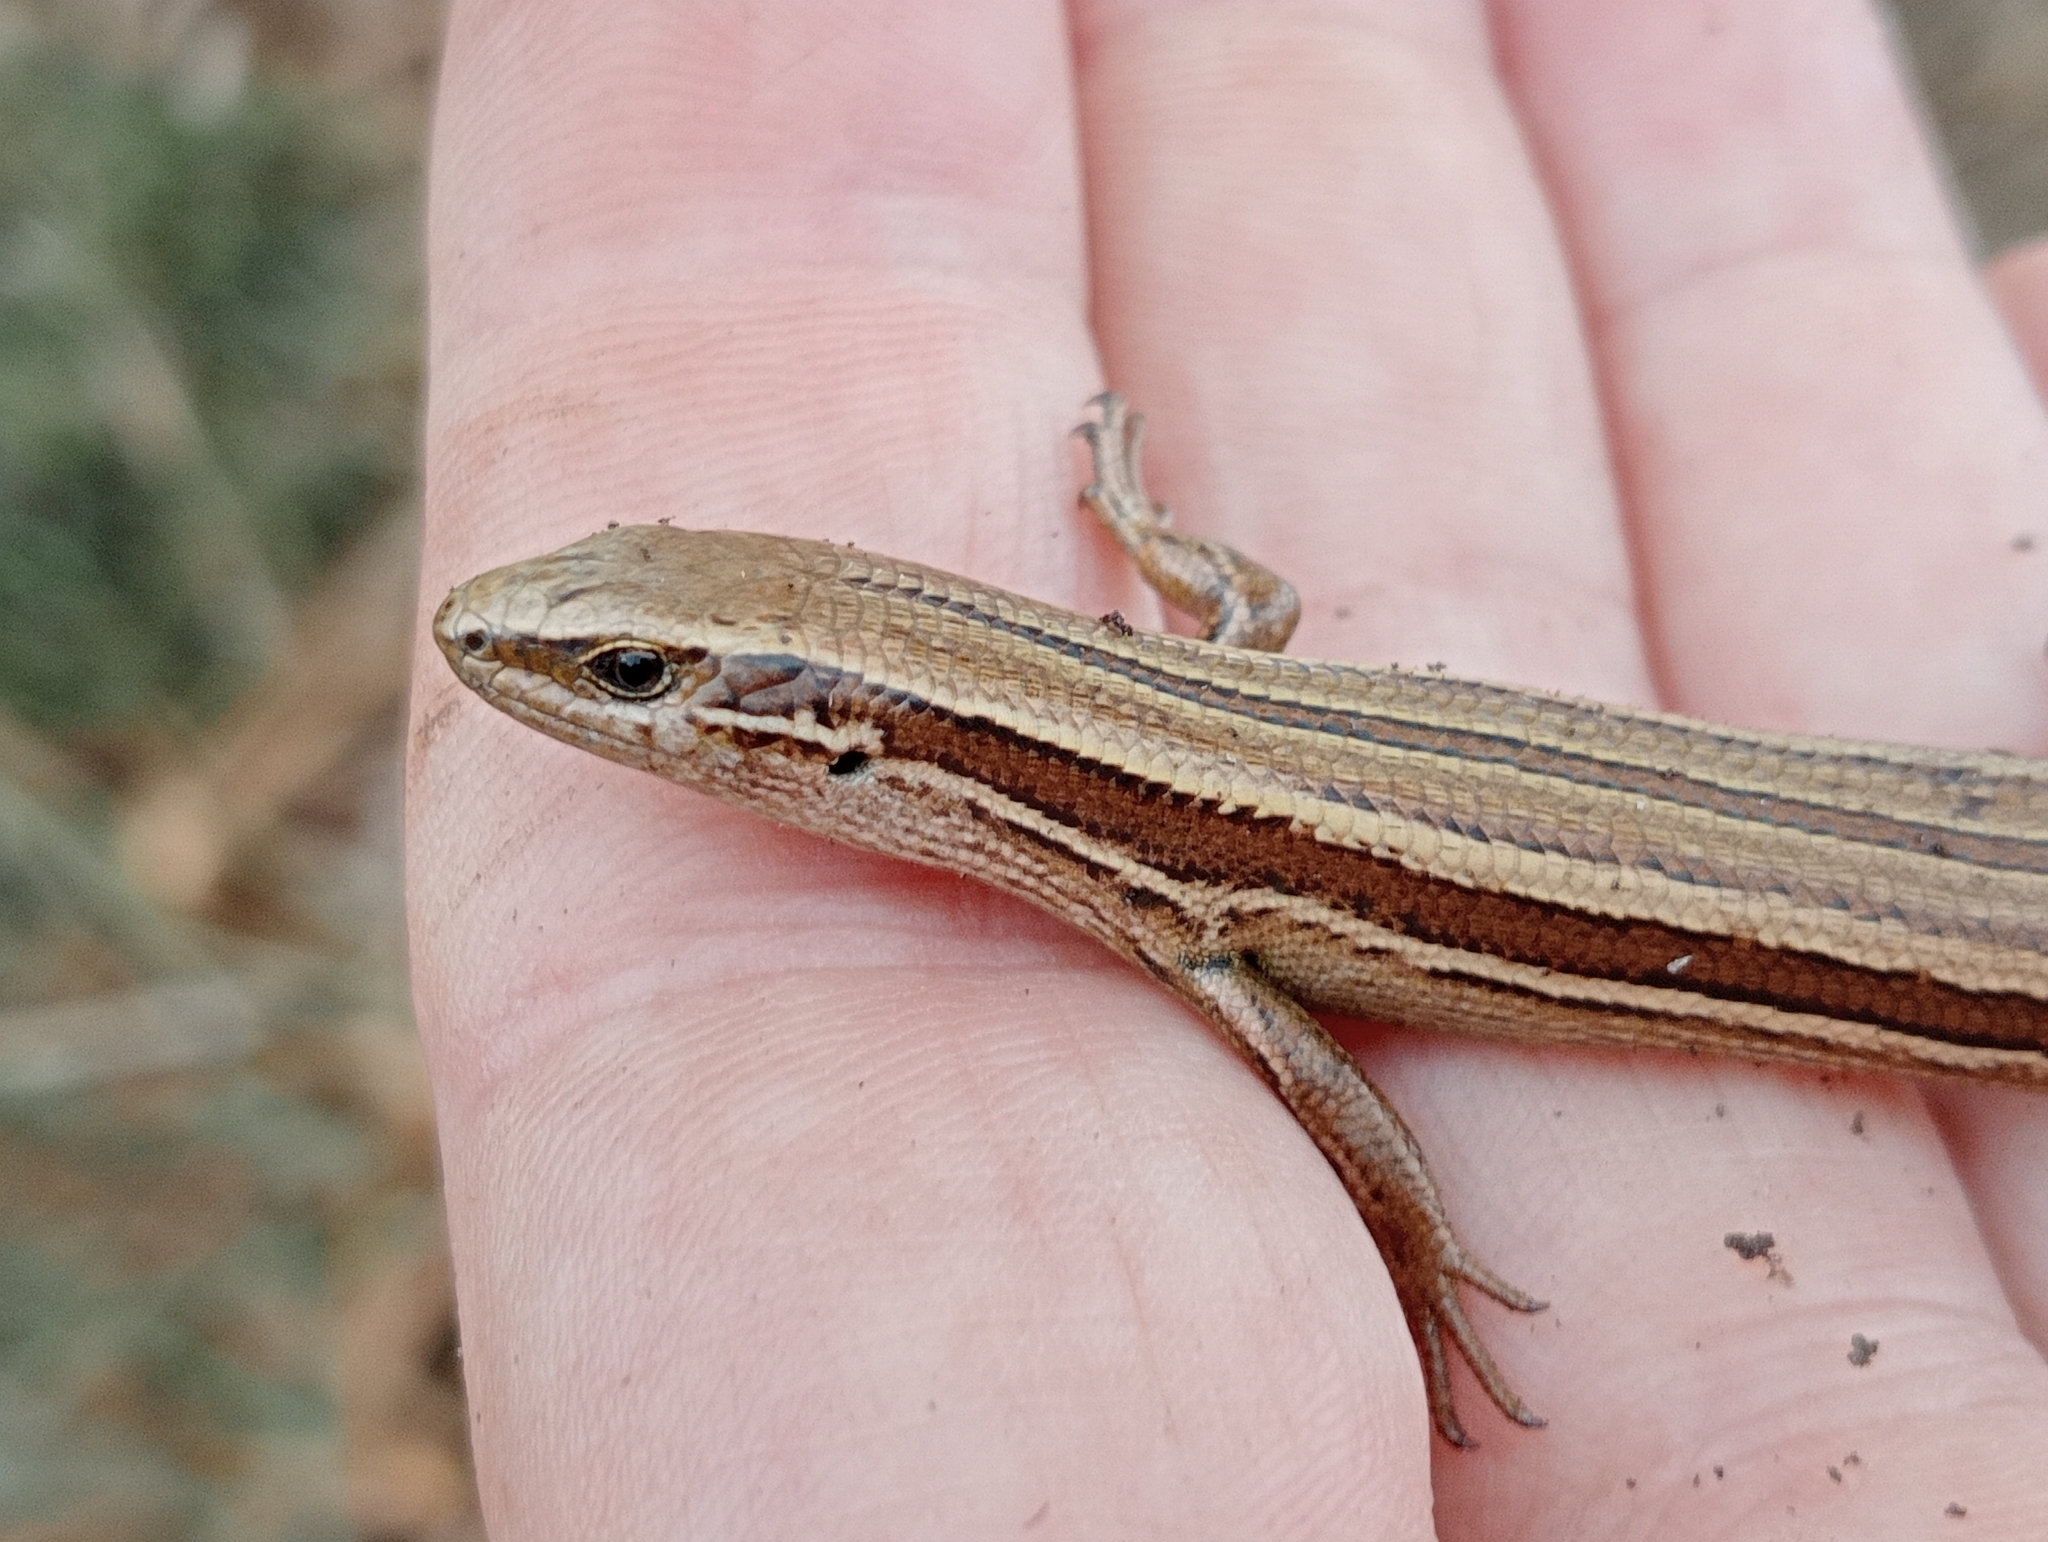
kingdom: Animalia
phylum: Chordata
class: Squamata
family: Scincidae
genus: Oligosoma
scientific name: Oligosoma polychroma
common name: Common new zealand skink
